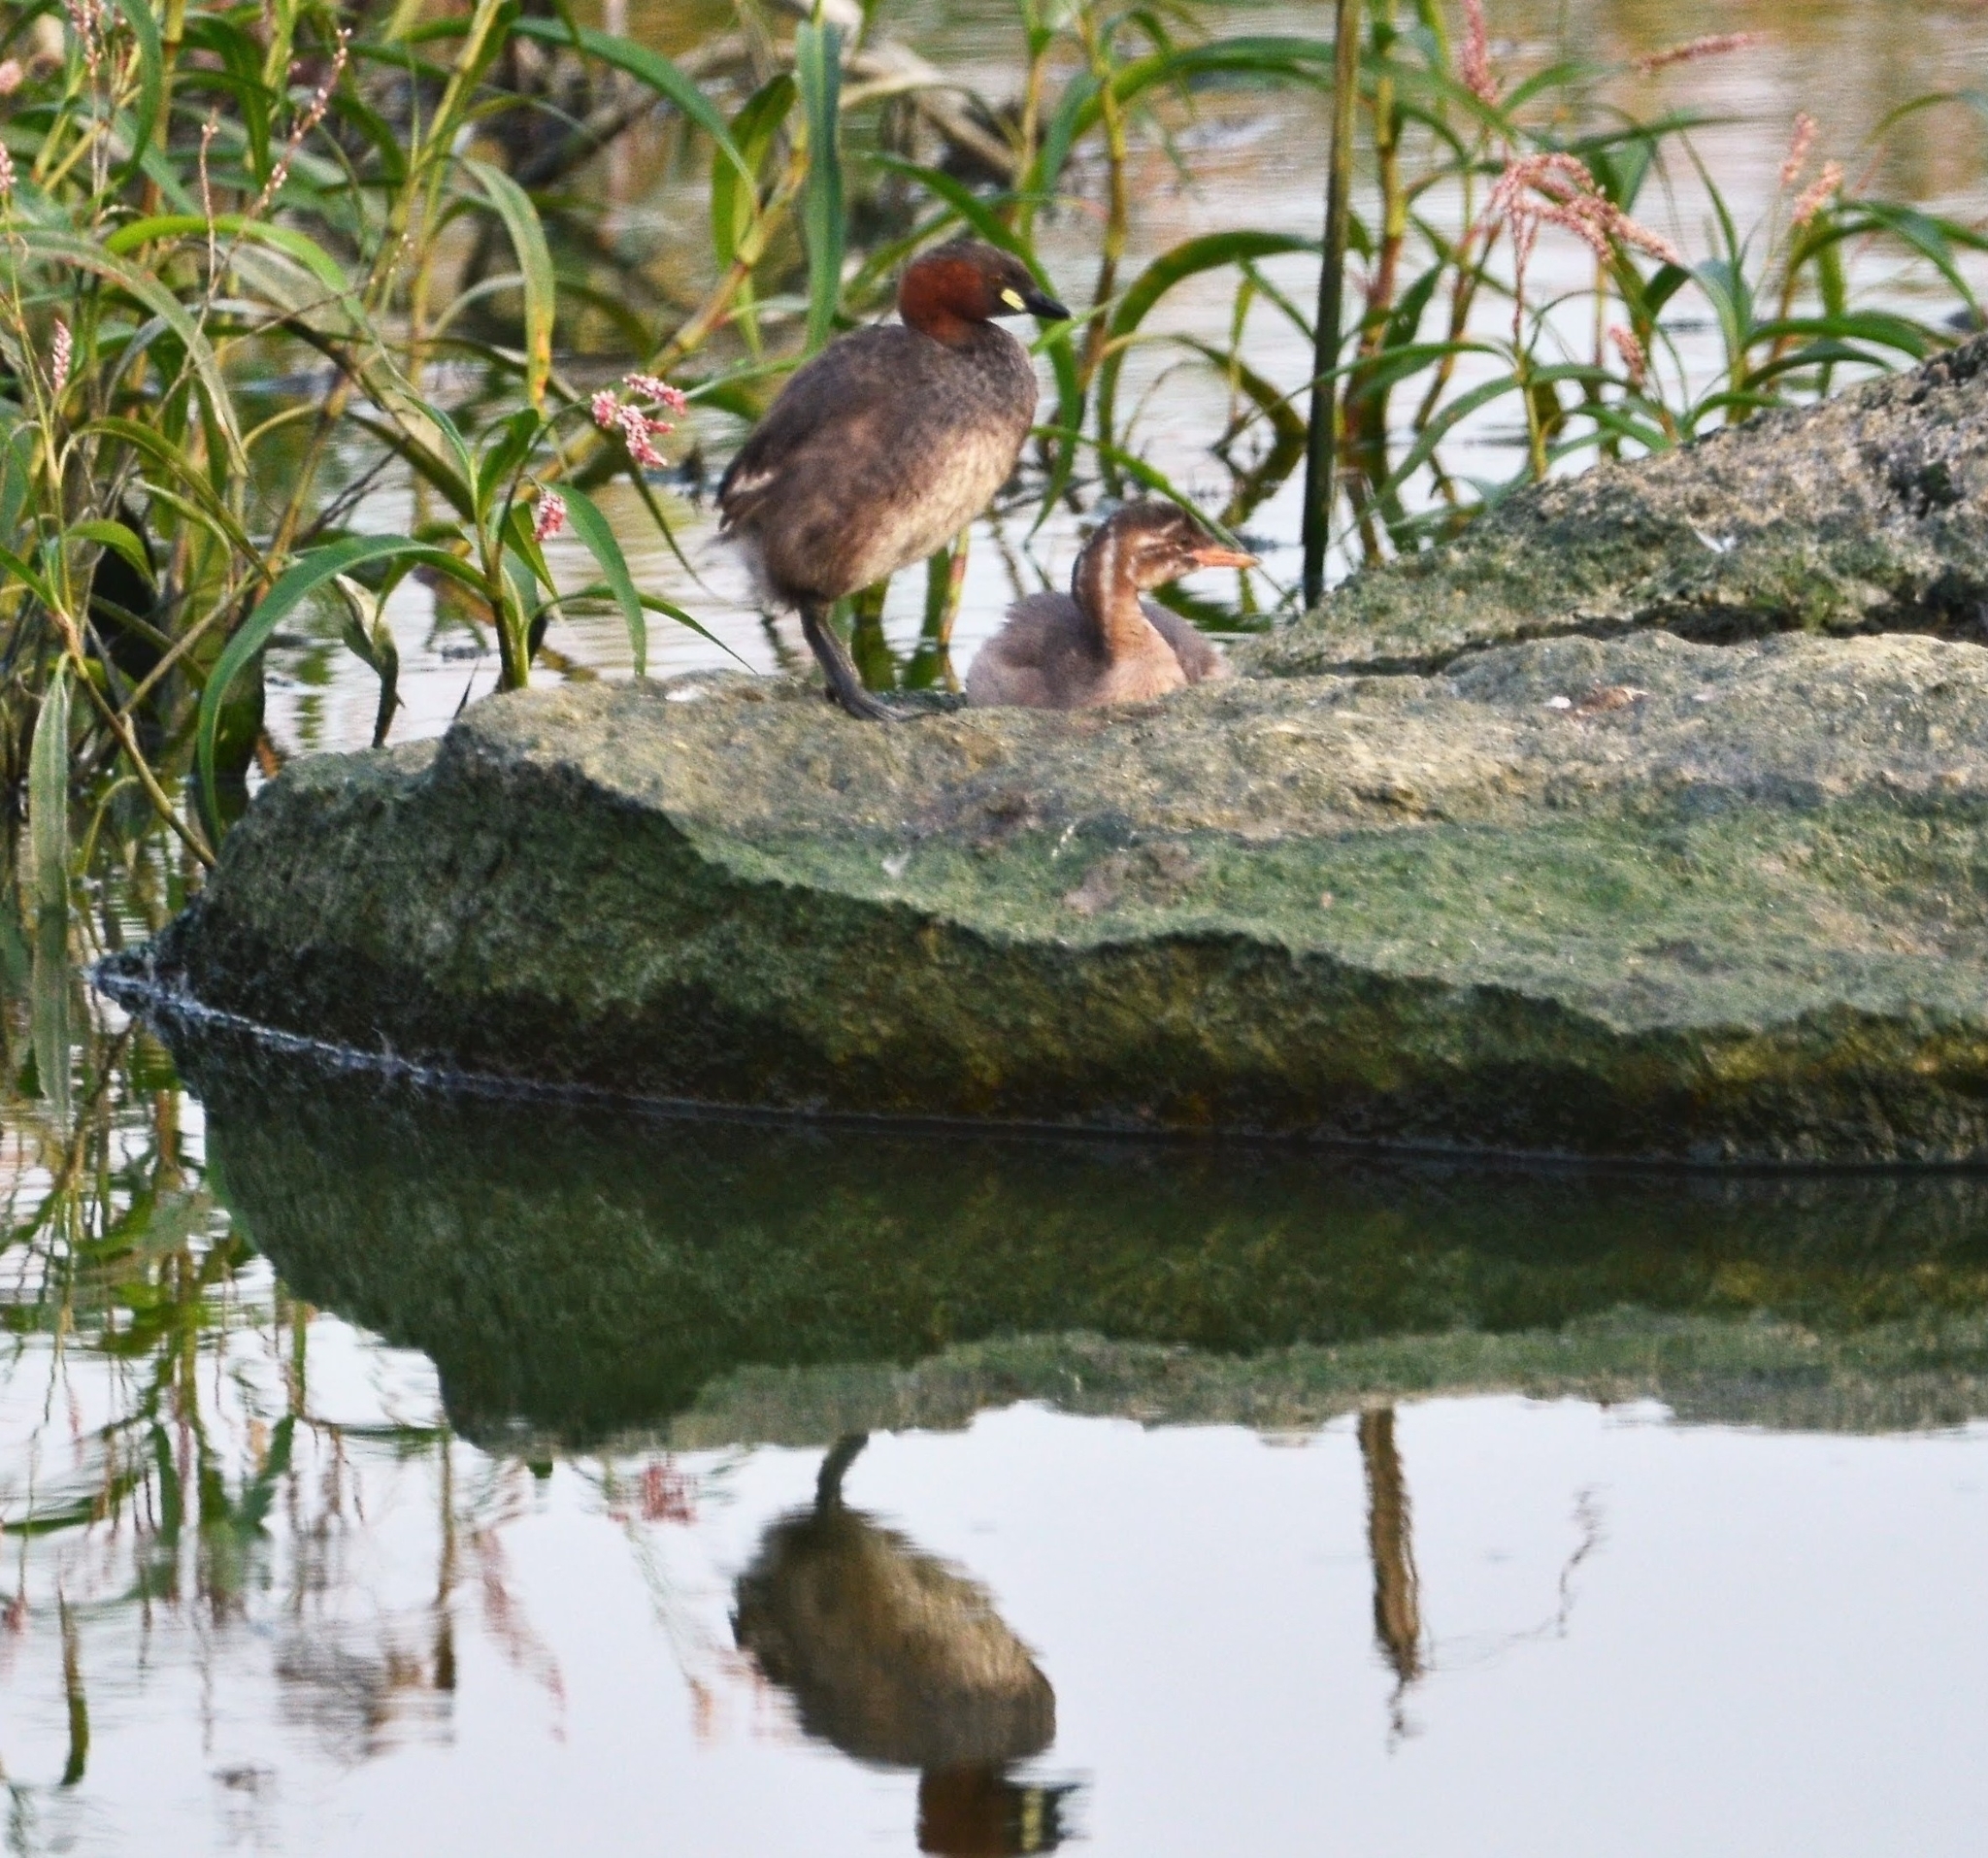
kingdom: Animalia
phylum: Chordata
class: Aves
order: Podicipediformes
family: Podicipedidae
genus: Tachybaptus
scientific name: Tachybaptus ruficollis
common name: Little grebe
